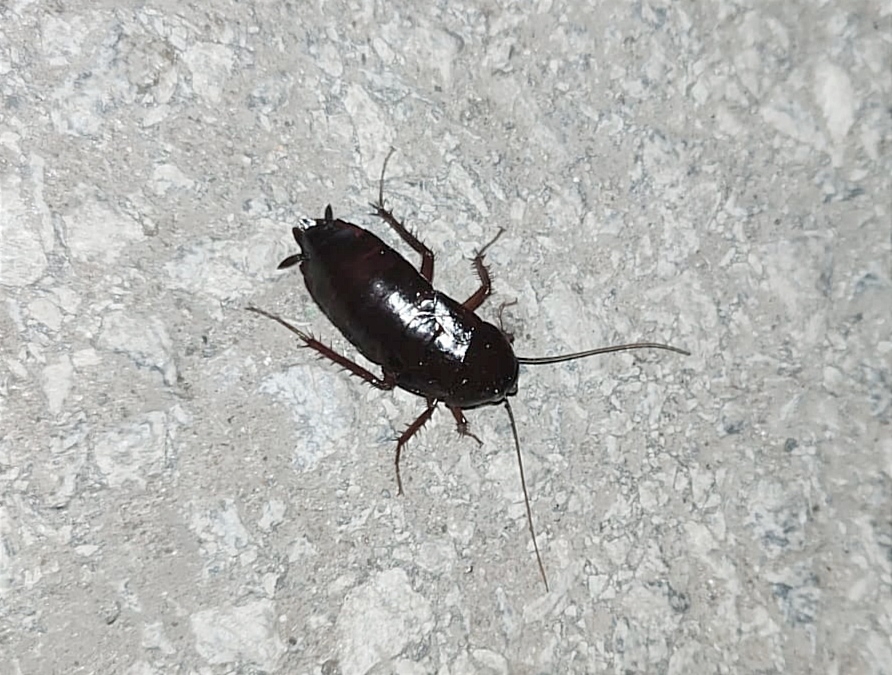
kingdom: Animalia
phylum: Arthropoda
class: Insecta
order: Blattodea
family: Blattidae
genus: Blatta
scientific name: Blatta orientalis
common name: Oriental cockroach
